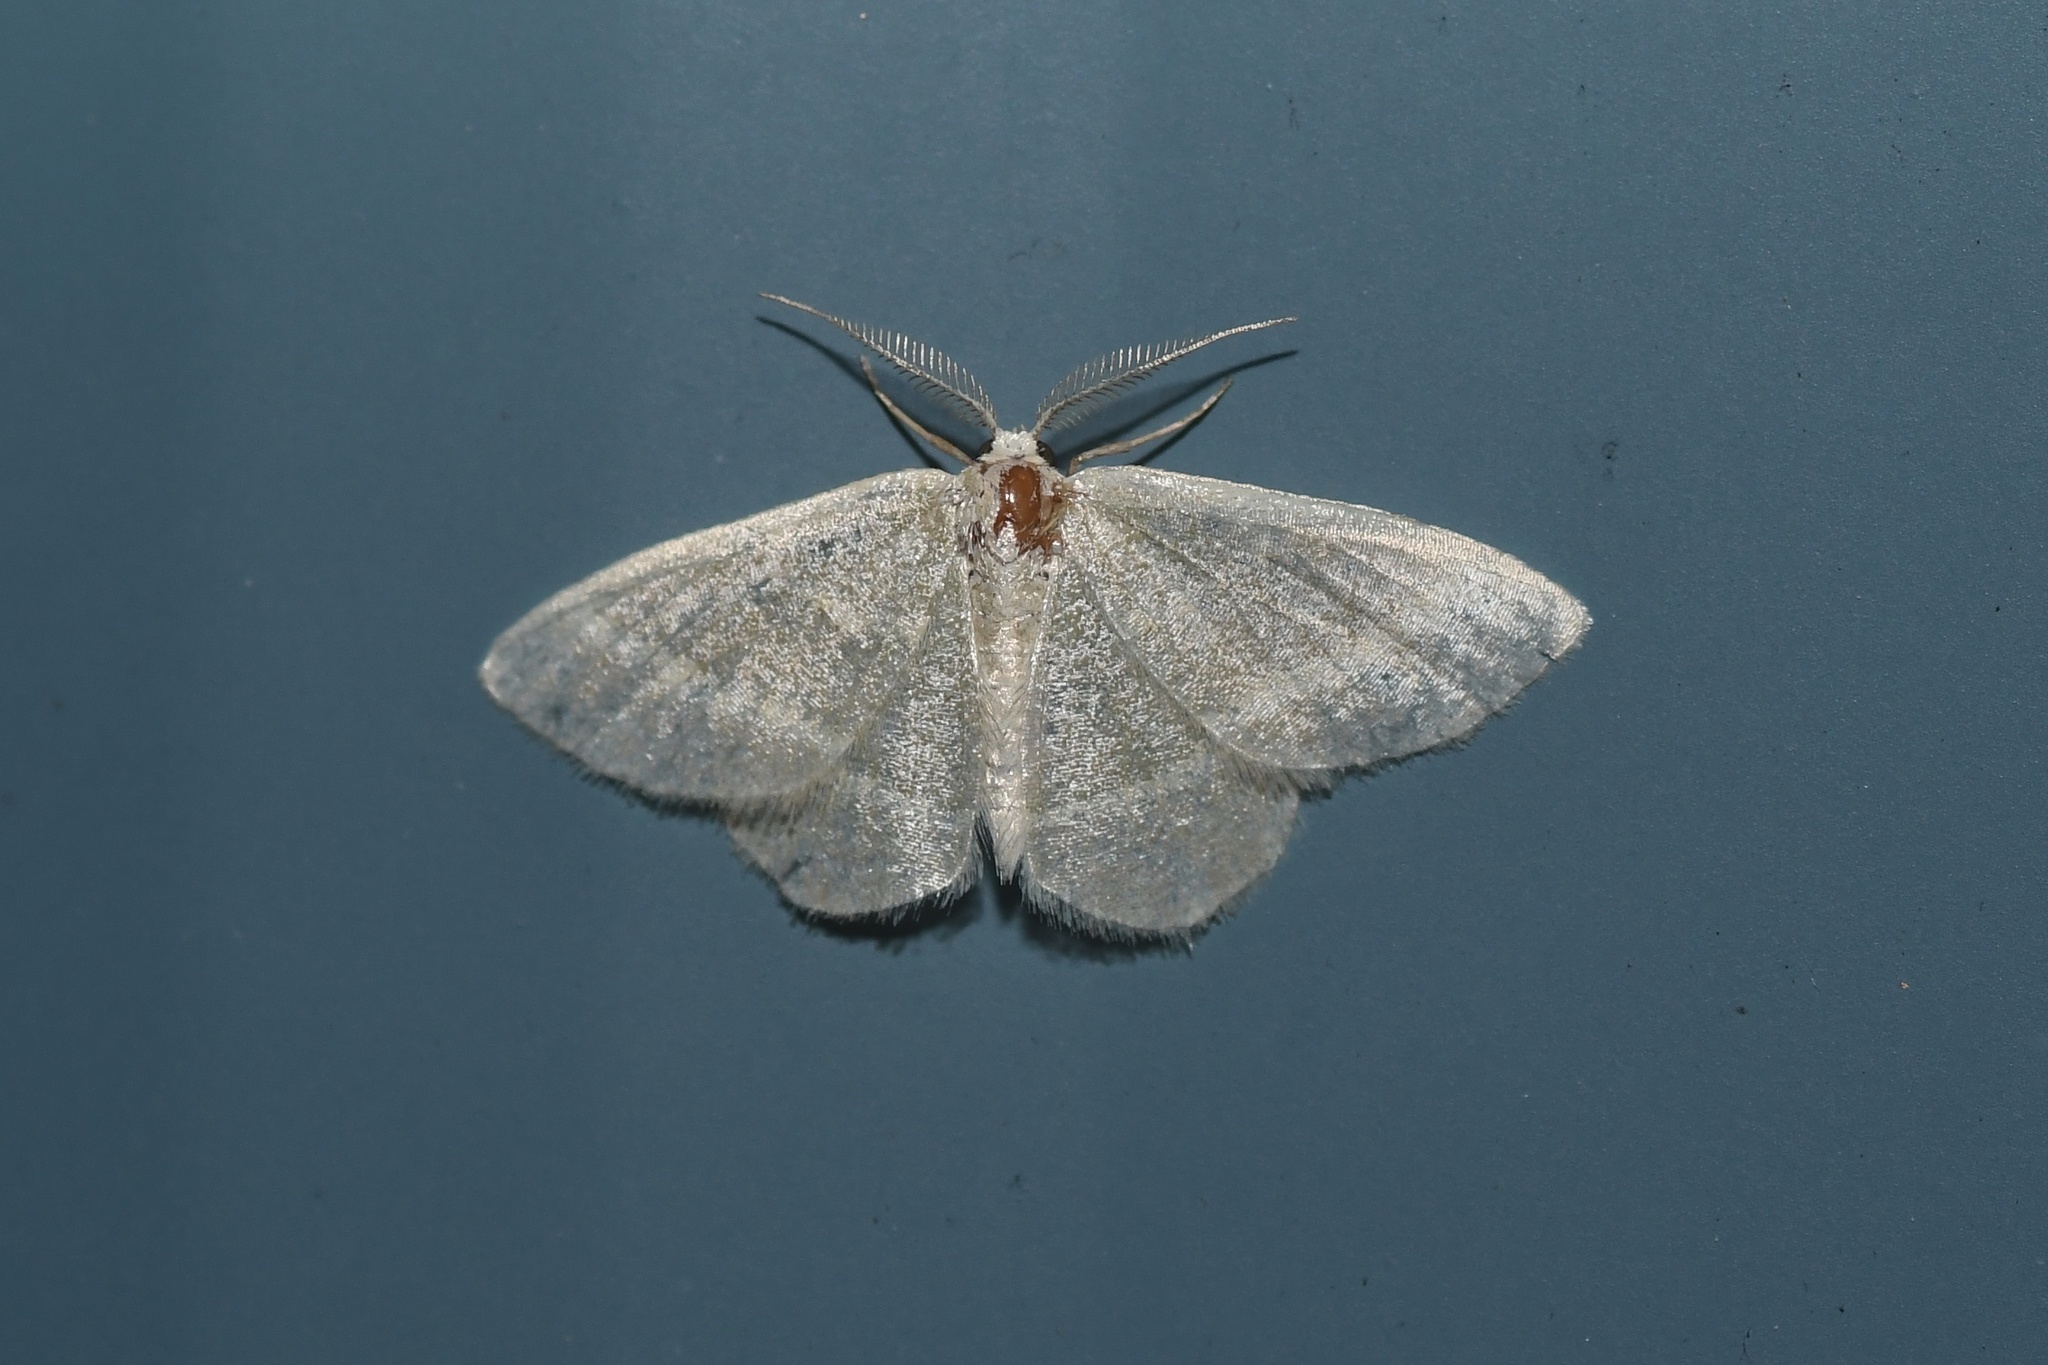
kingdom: Animalia
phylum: Arthropoda
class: Insecta
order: Lepidoptera
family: Geometridae
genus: Chlorochlamys
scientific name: Chlorochlamys chloroleucaria
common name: Blackberry looper
